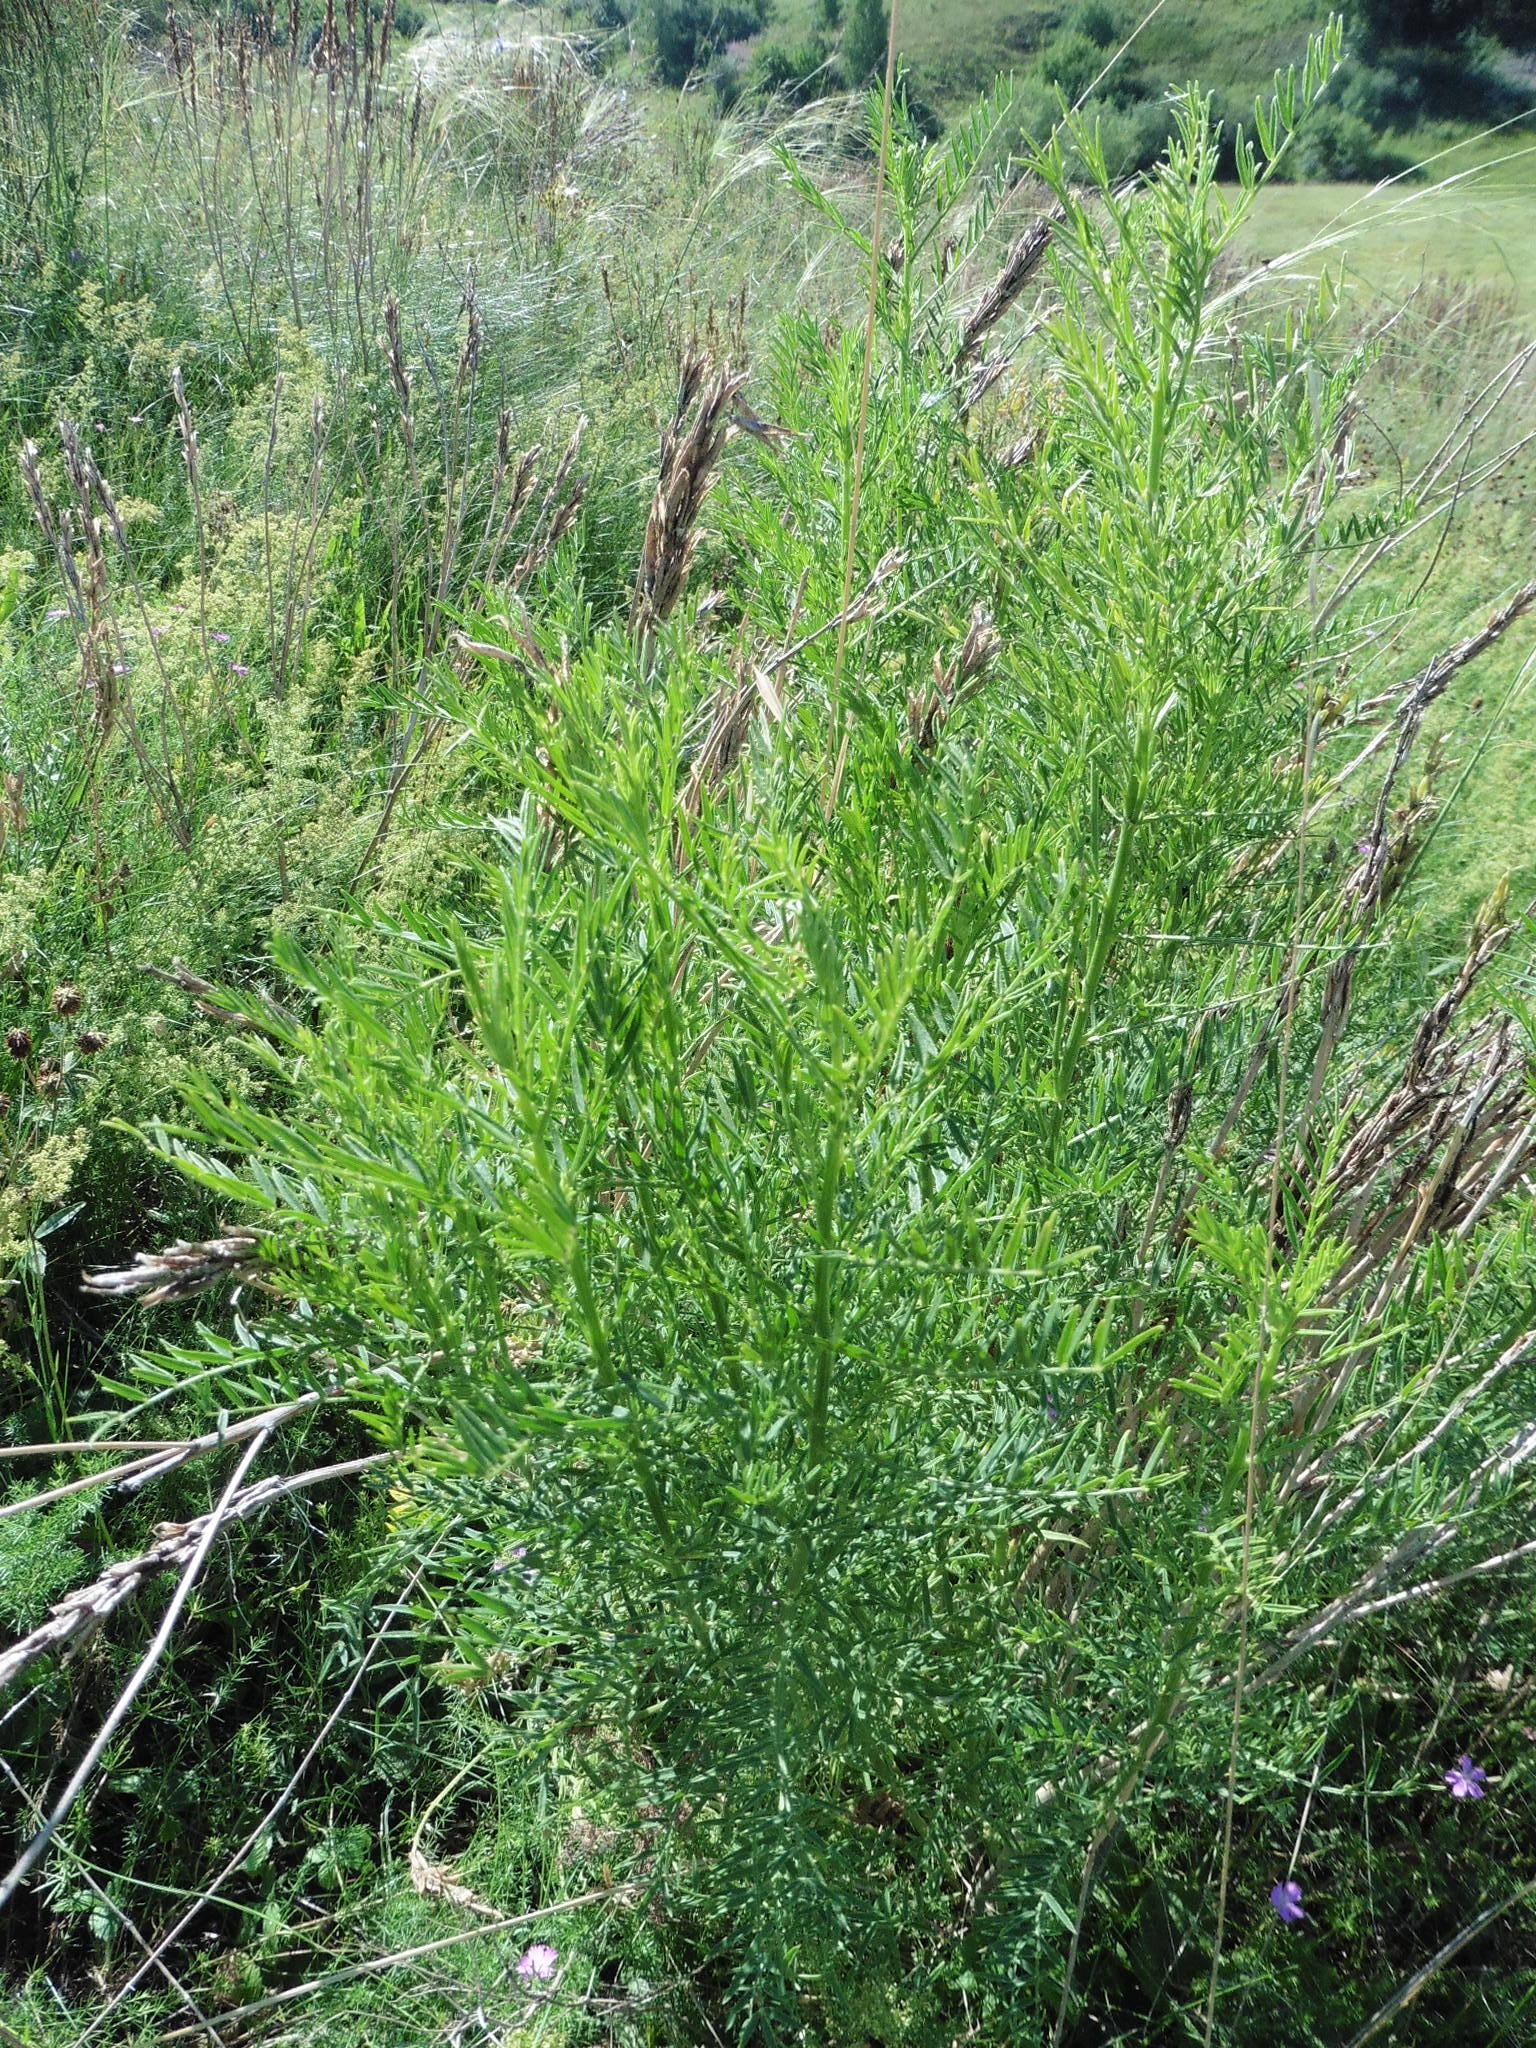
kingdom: Plantae
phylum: Tracheophyta
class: Magnoliopsida
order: Fabales
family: Fabaceae
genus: Astragalus
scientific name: Astragalus asper
